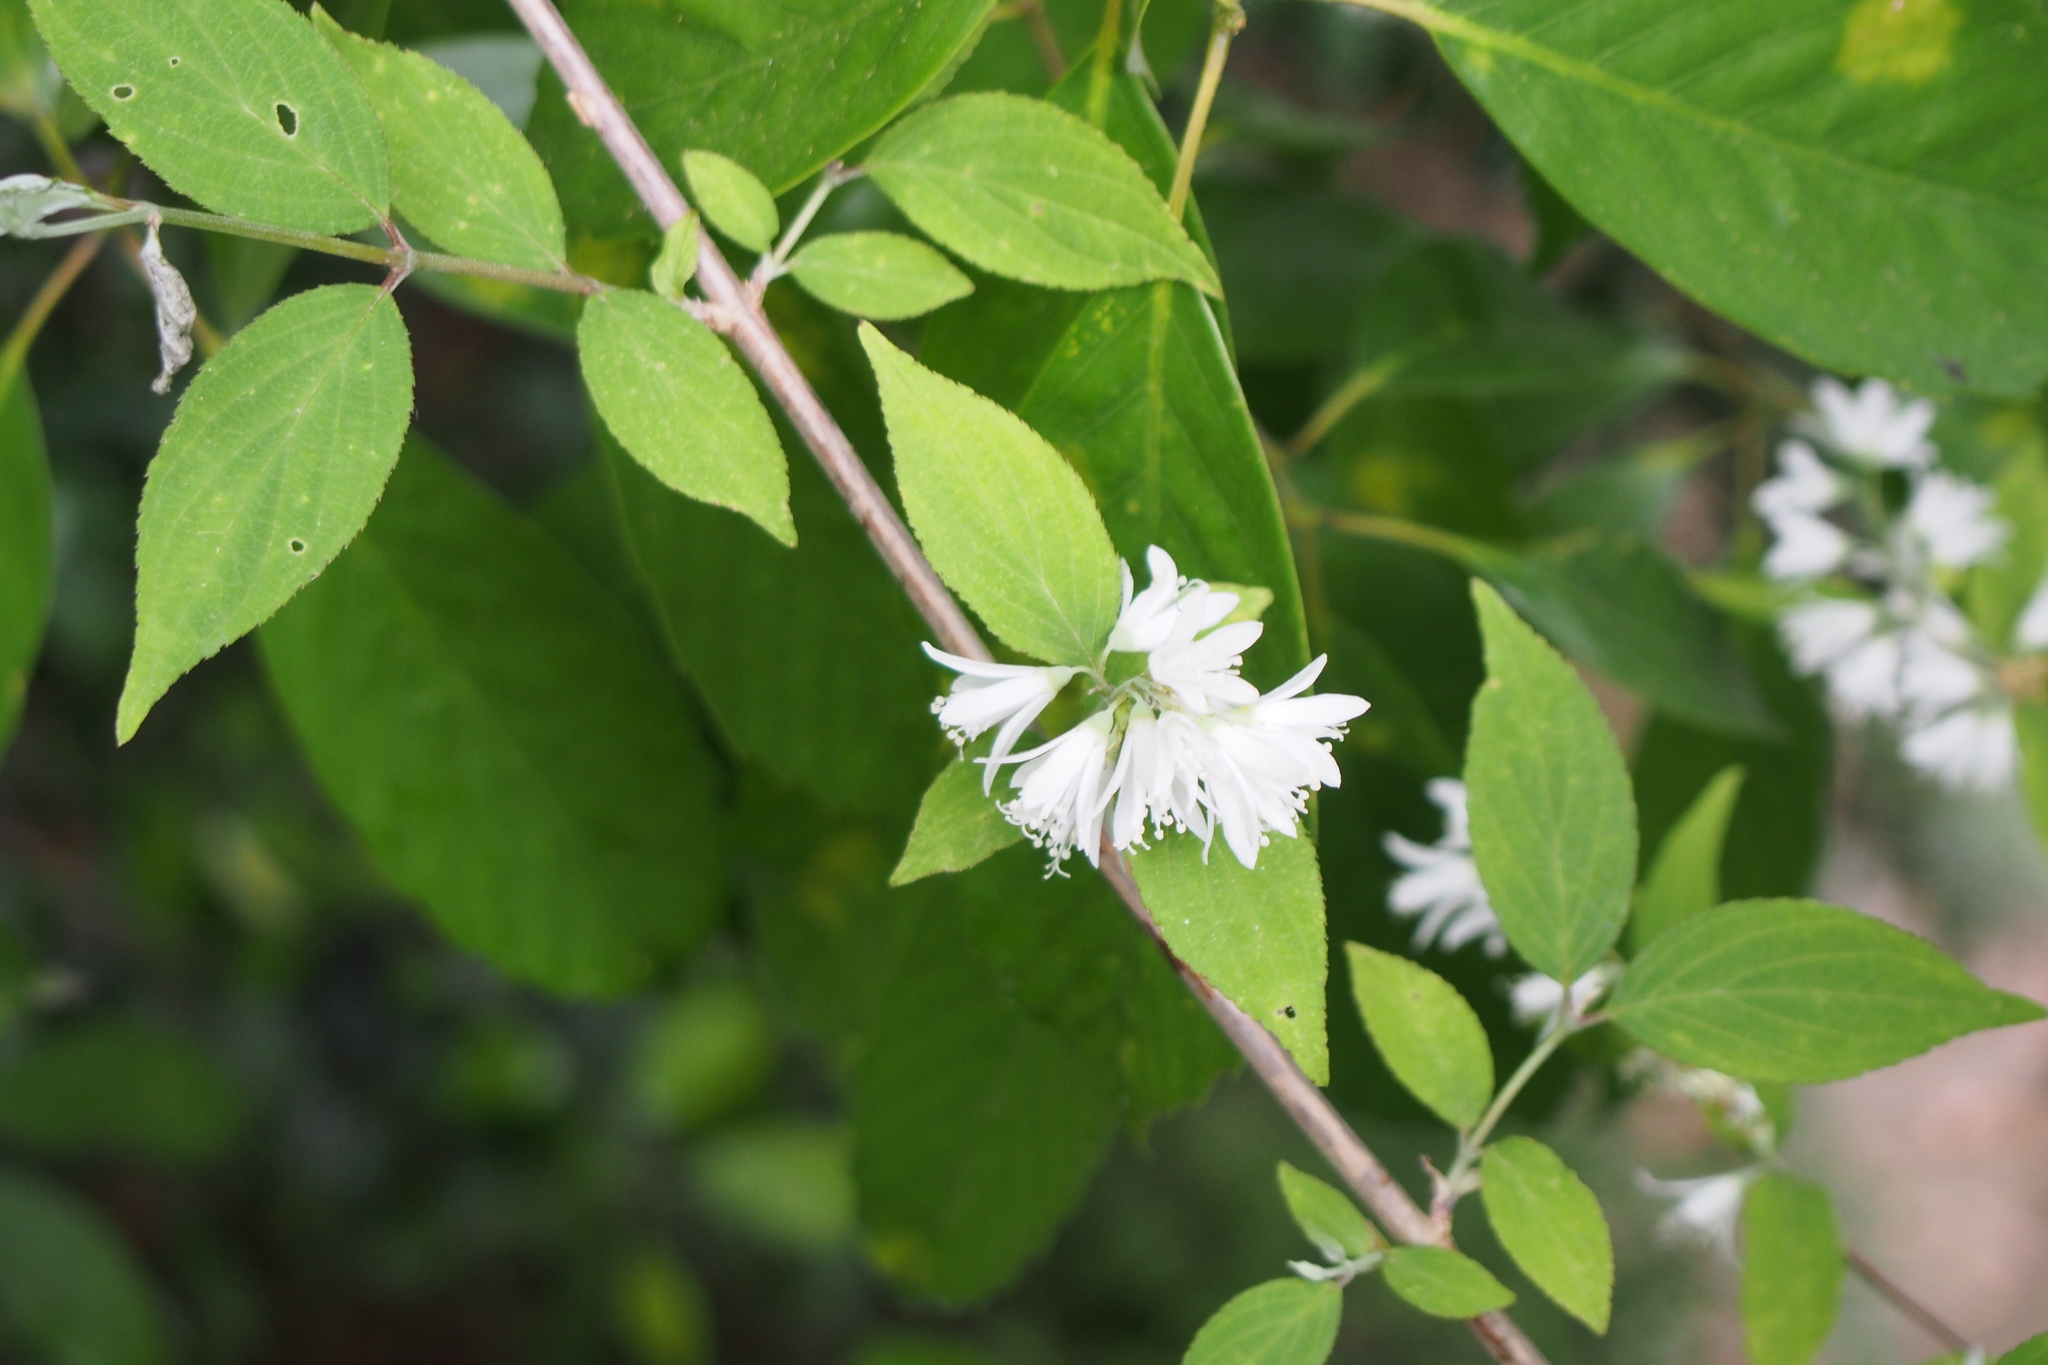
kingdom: Plantae
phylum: Tracheophyta
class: Magnoliopsida
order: Cornales
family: Hydrangeaceae
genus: Deutzia
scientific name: Deutzia gracilis
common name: Slender pride of rochester
